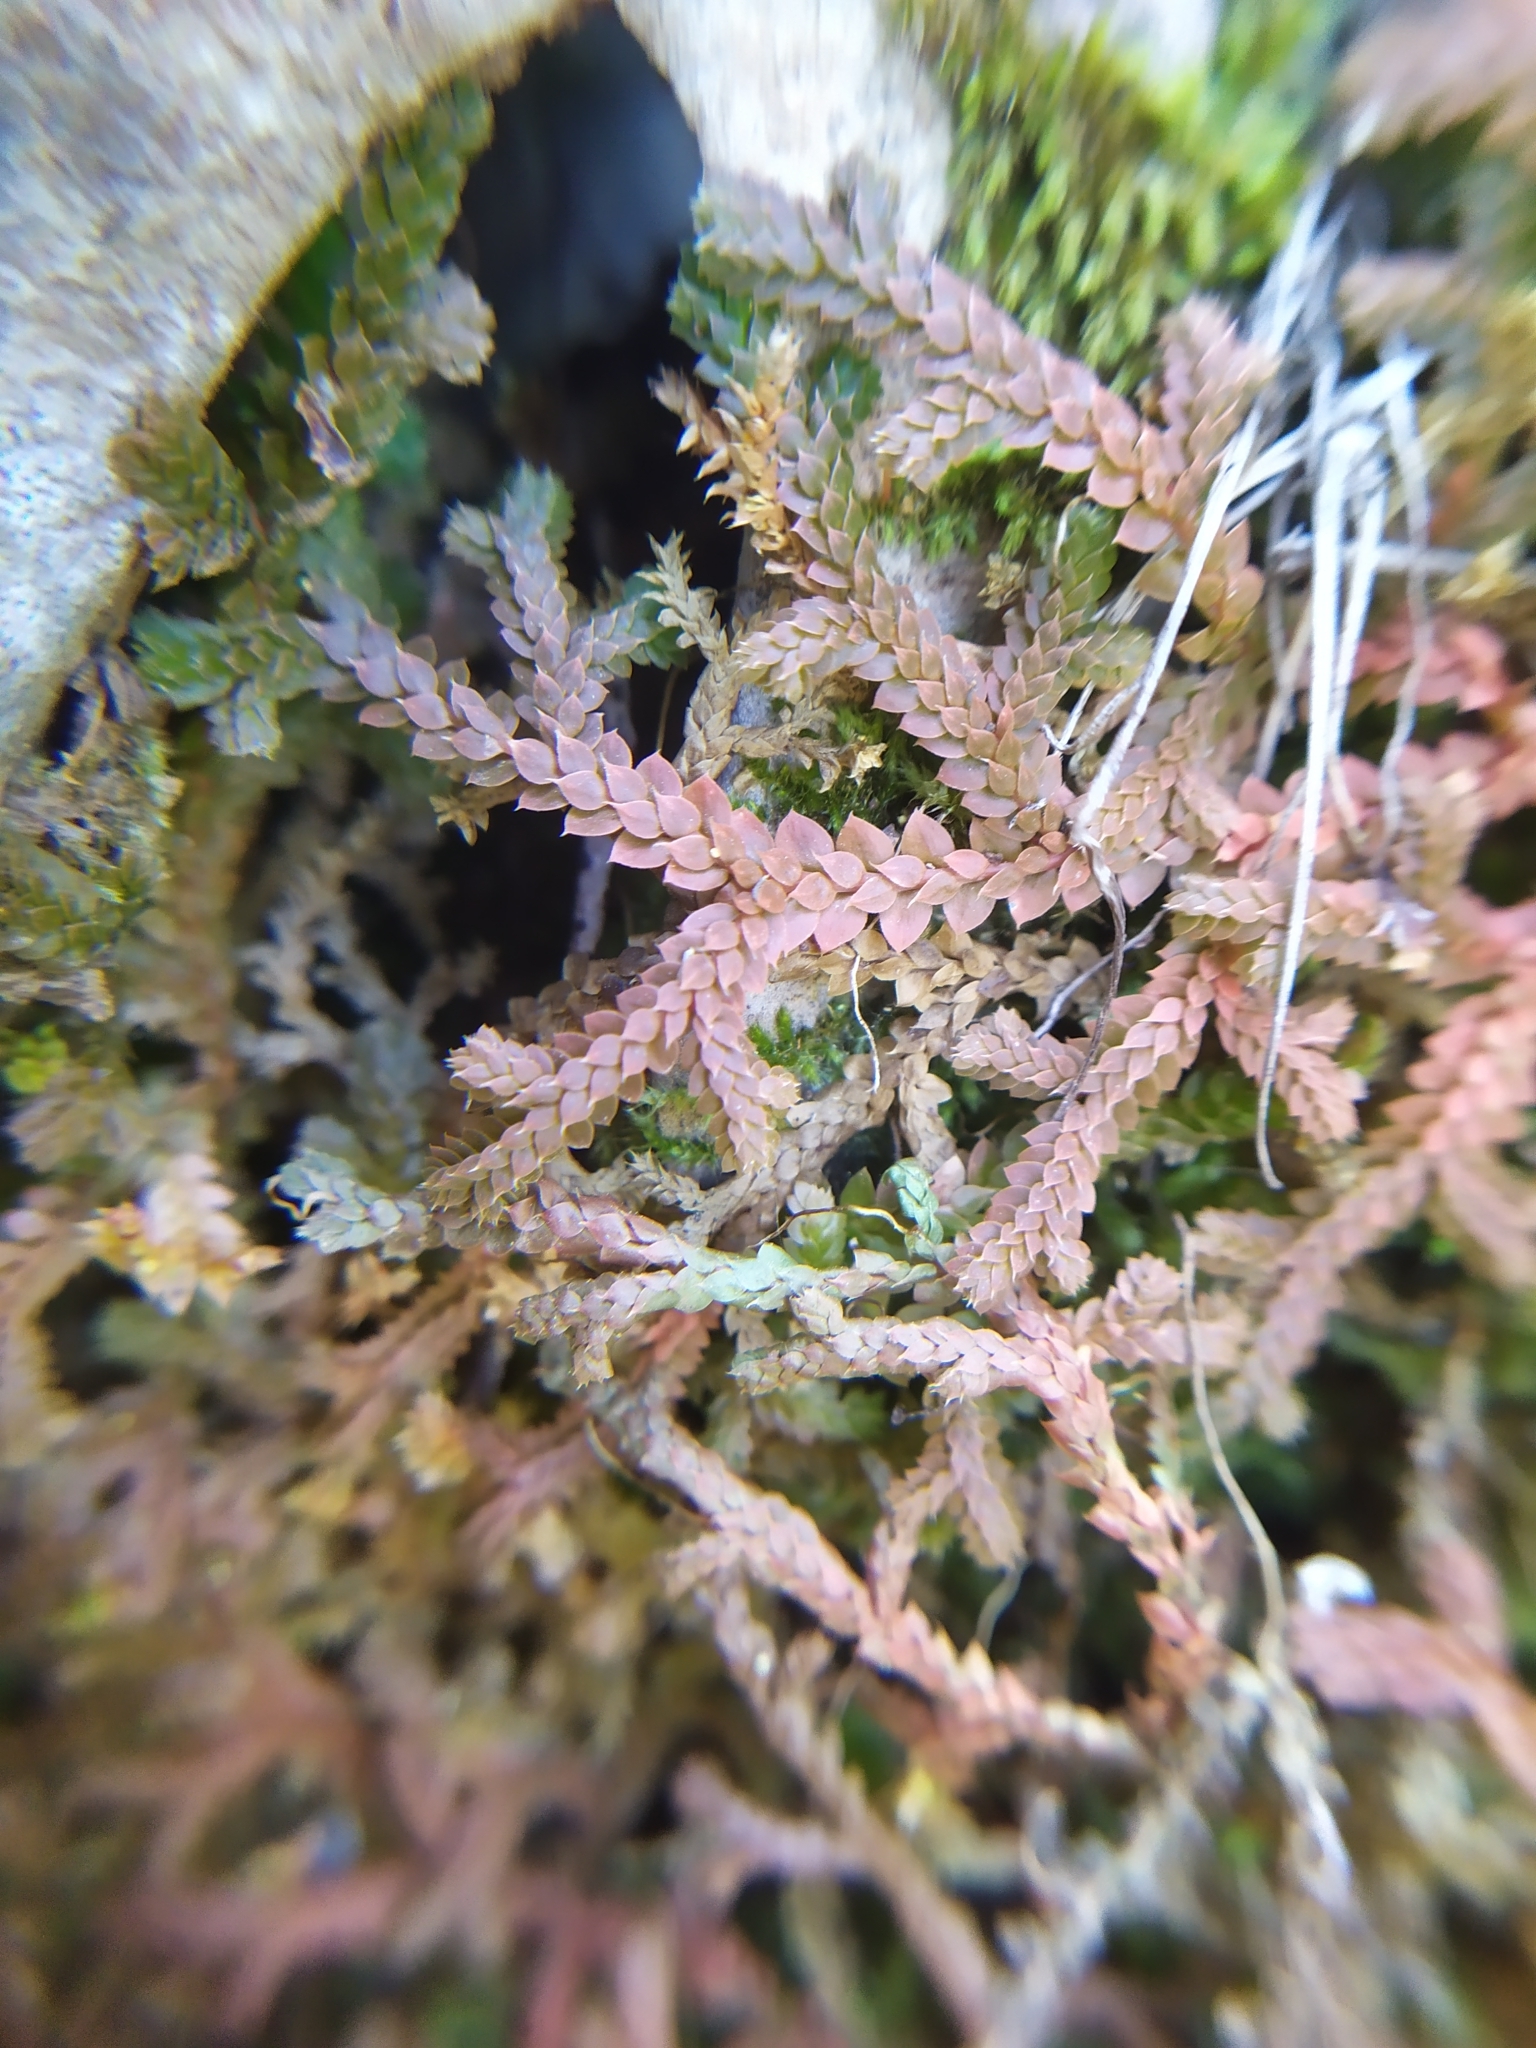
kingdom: Plantae
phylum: Tracheophyta
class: Lycopodiopsida
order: Selaginellales
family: Selaginellaceae
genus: Selaginella
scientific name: Selaginella denticulata
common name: Toothed-leaved clubmoss
